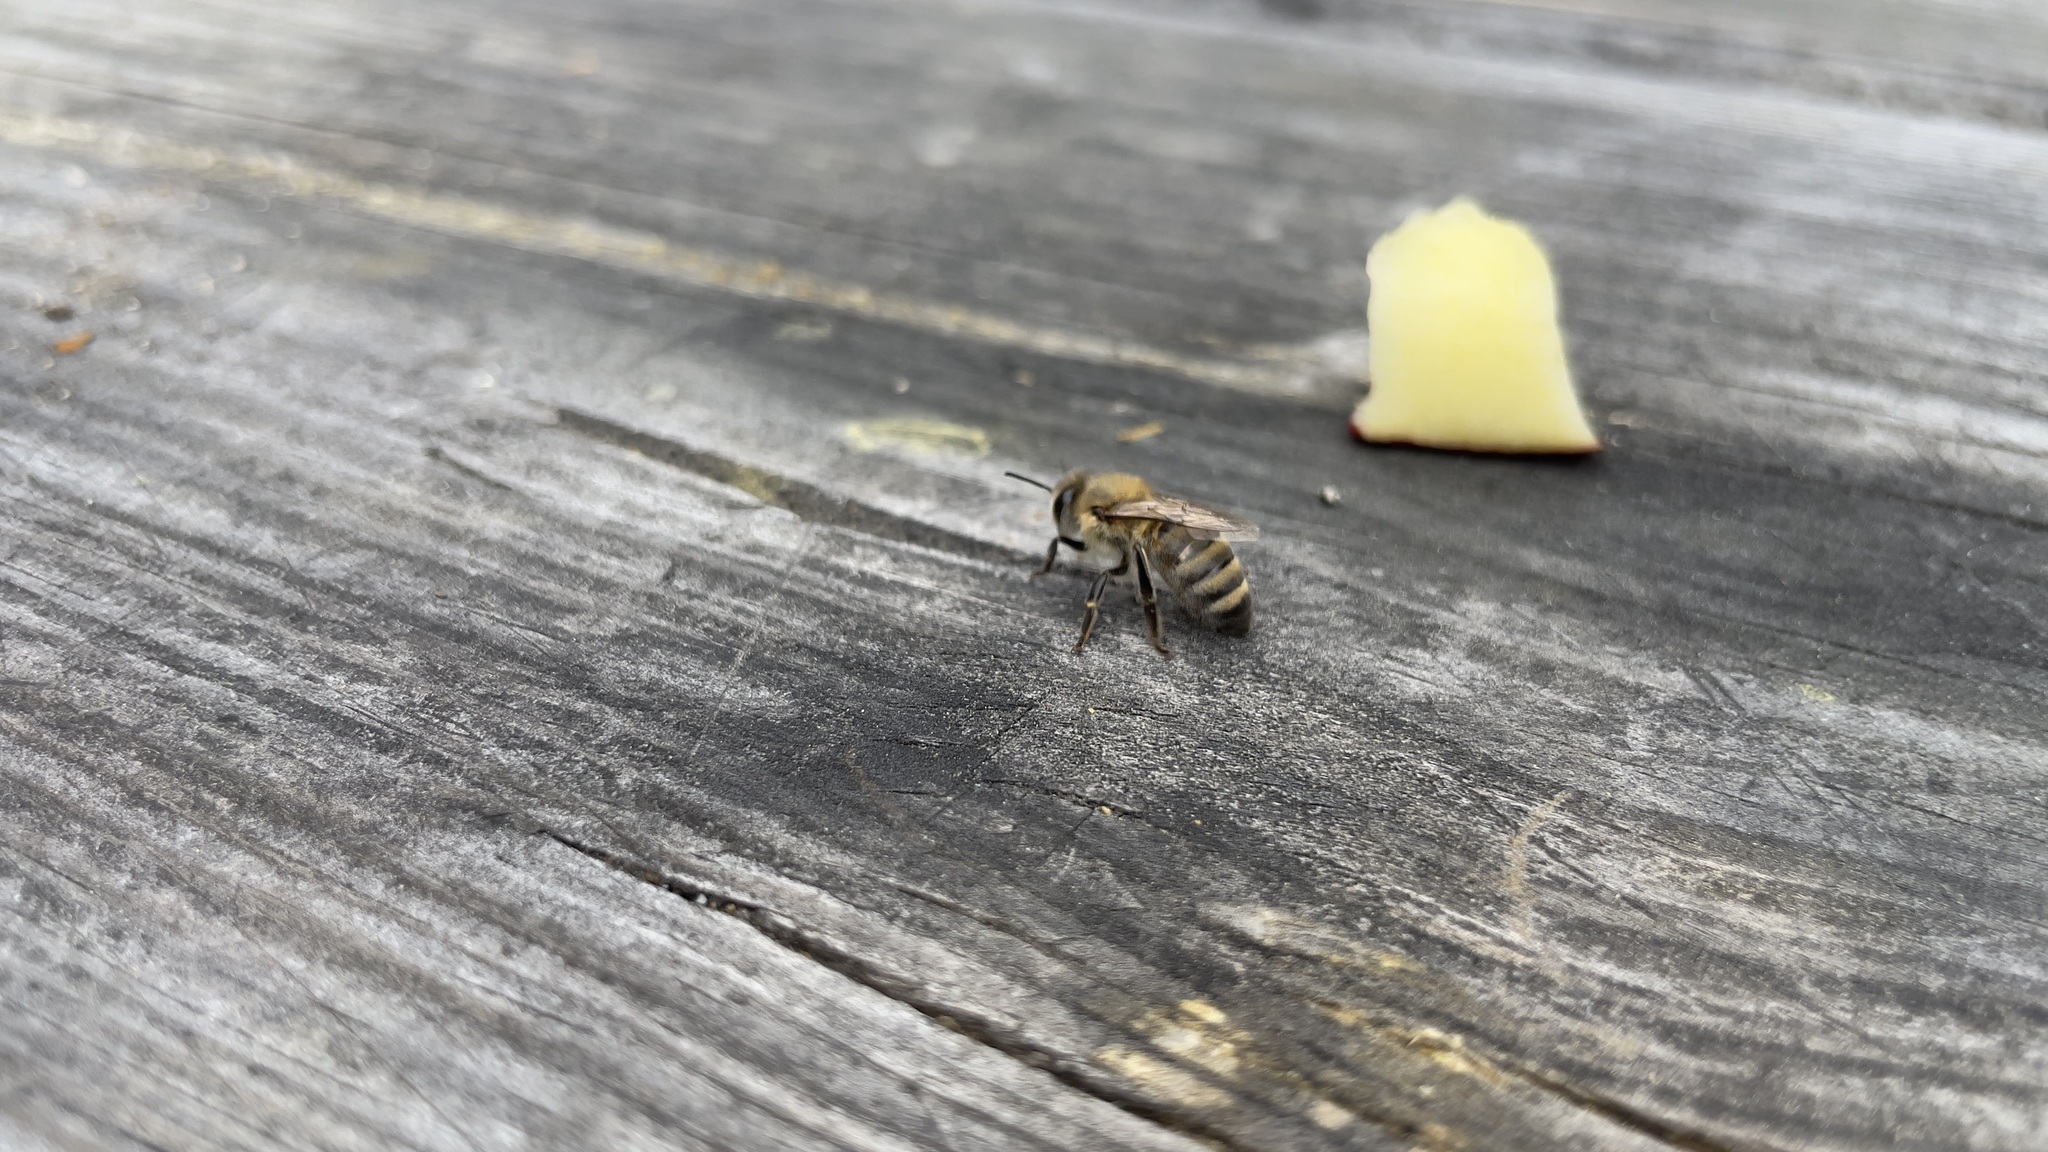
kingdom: Animalia
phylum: Arthropoda
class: Insecta
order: Hymenoptera
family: Apidae
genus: Apis
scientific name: Apis mellifera
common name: Honey bee
